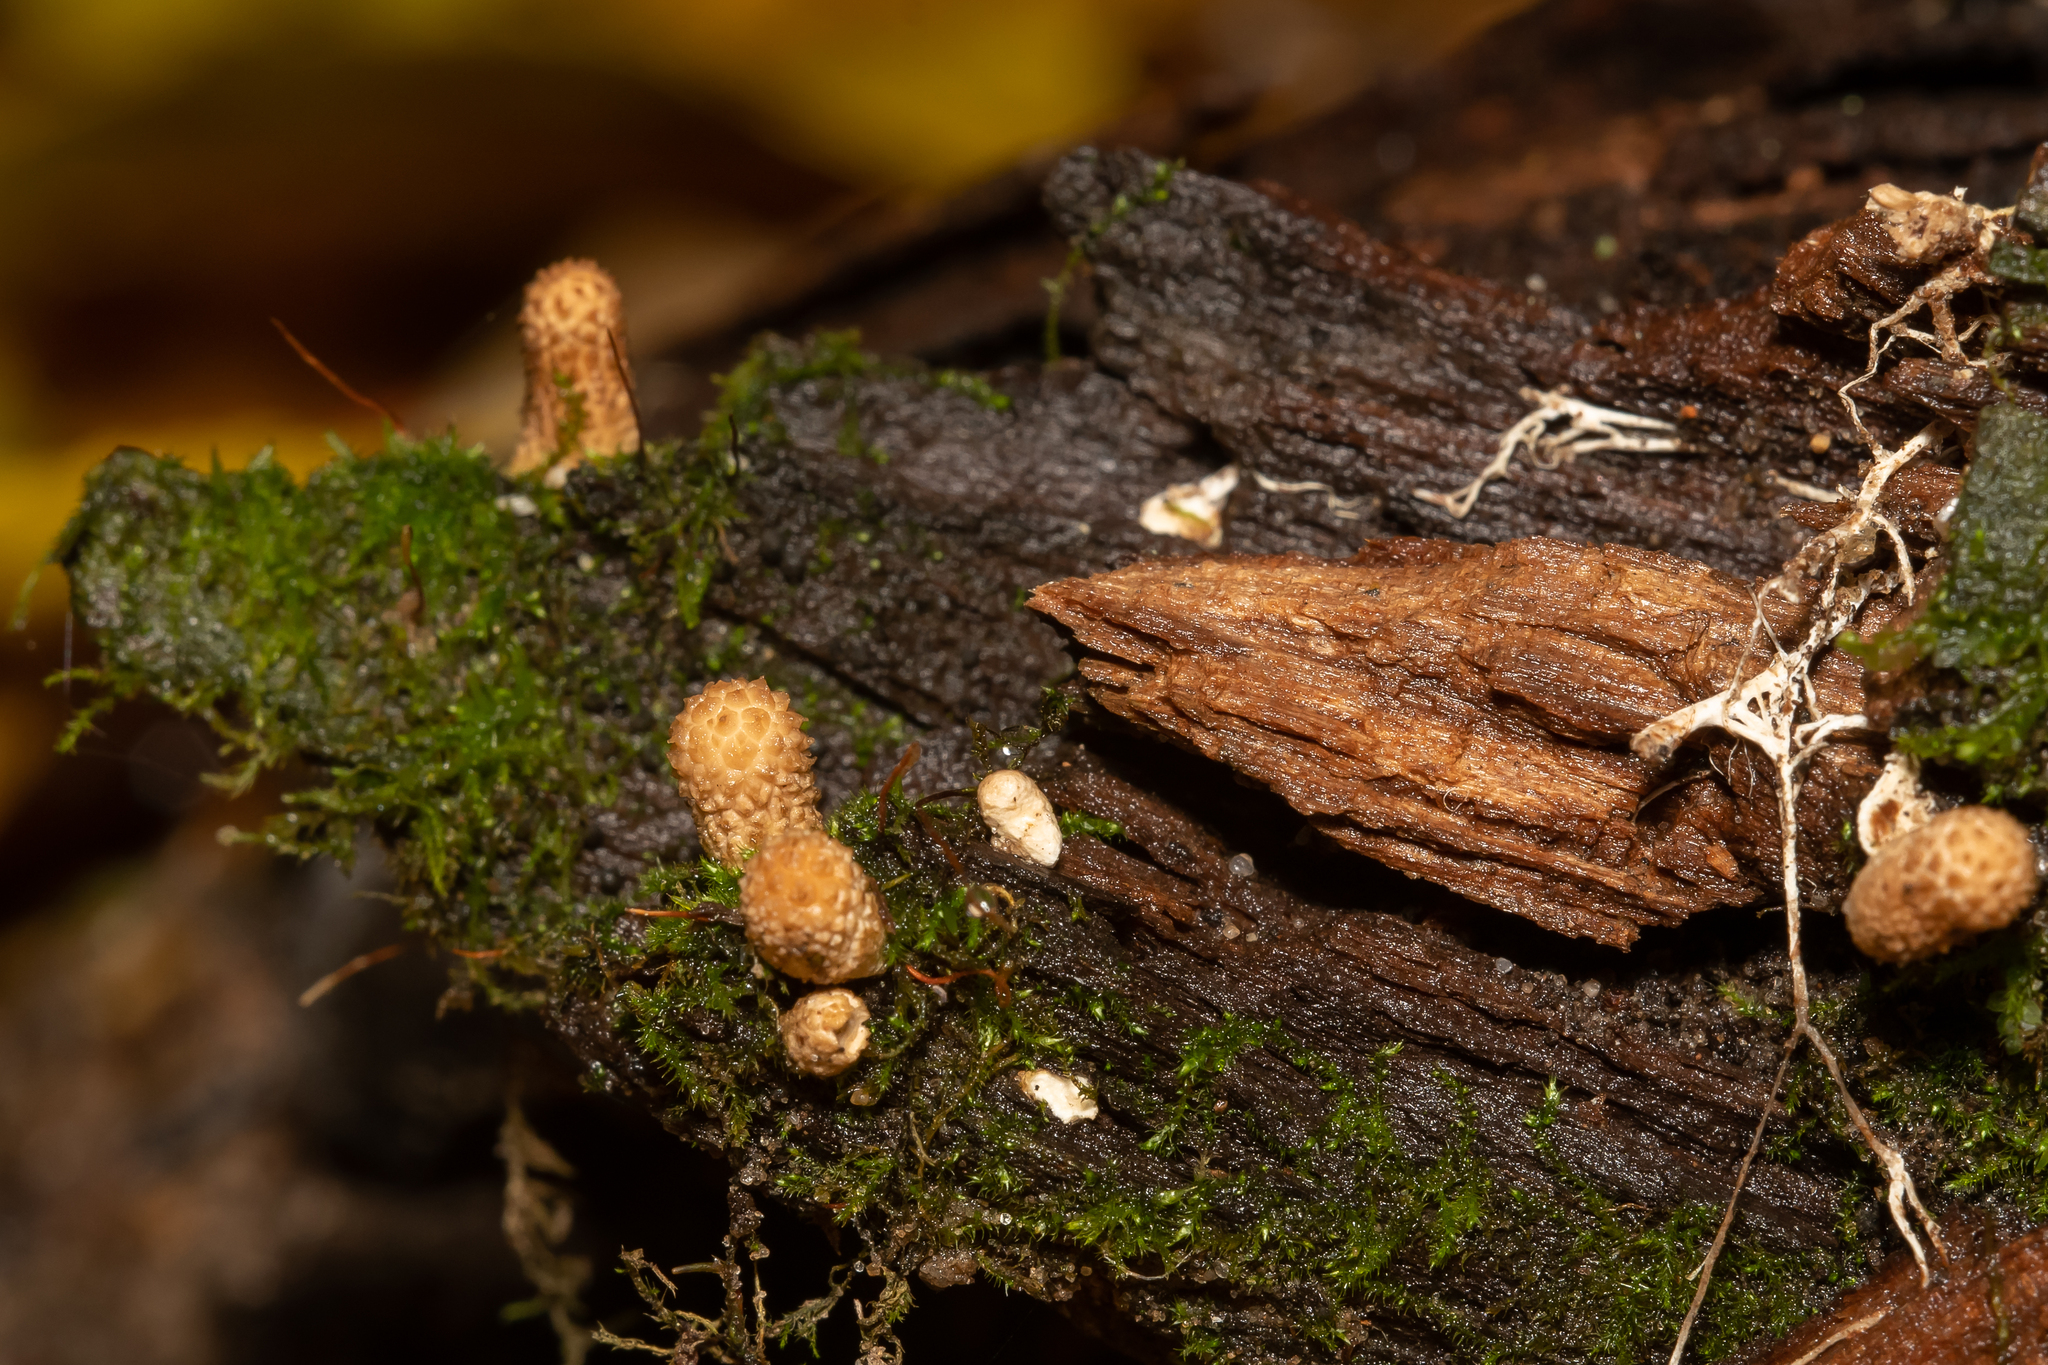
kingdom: Fungi
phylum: Basidiomycota
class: Agaricomycetes
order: Agaricales
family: Lycoperdaceae
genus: Apioperdon
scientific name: Apioperdon pyriforme
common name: Pear-shaped puffball
